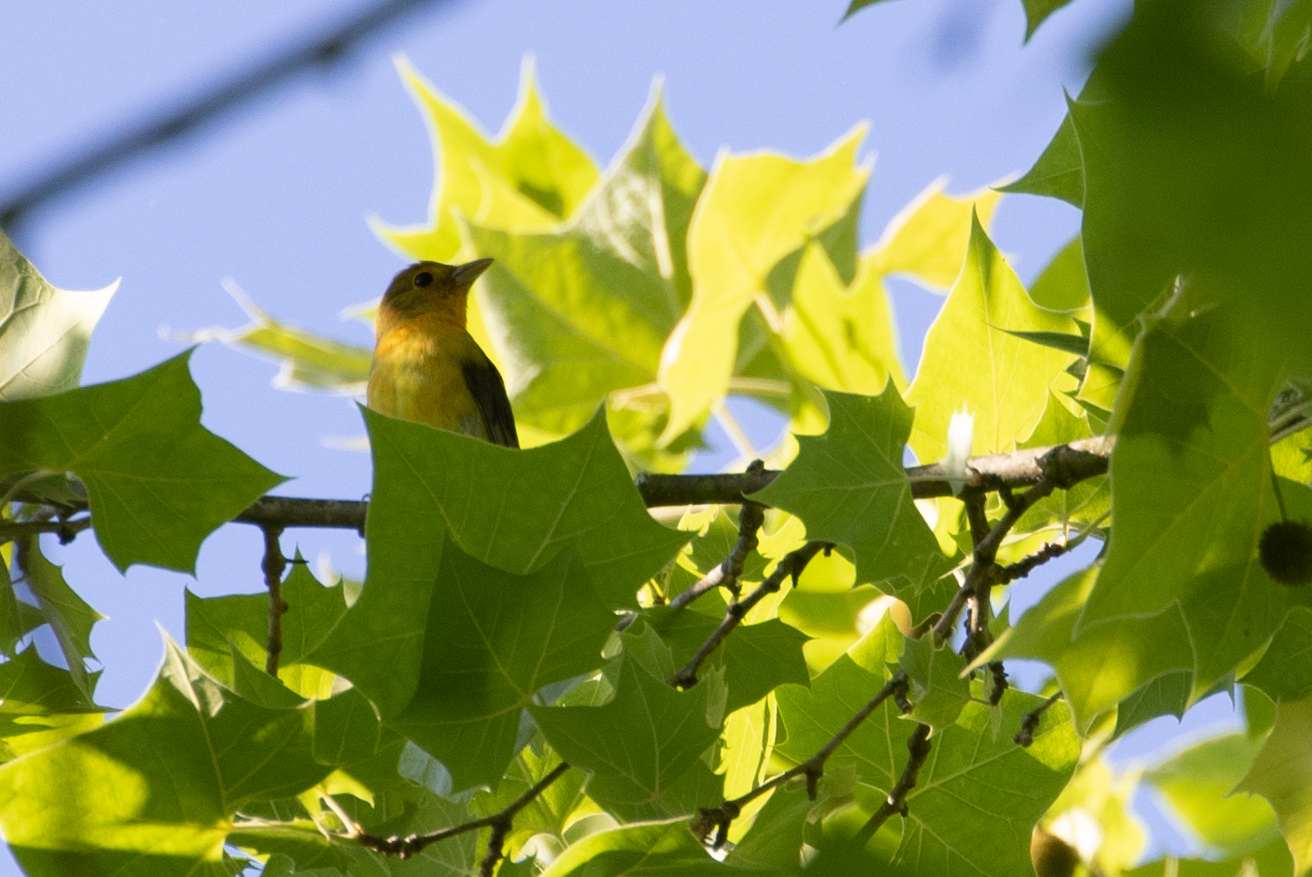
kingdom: Animalia
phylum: Chordata
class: Aves
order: Passeriformes
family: Cardinalidae
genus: Piranga
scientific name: Piranga olivacea
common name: Scarlet tanager
